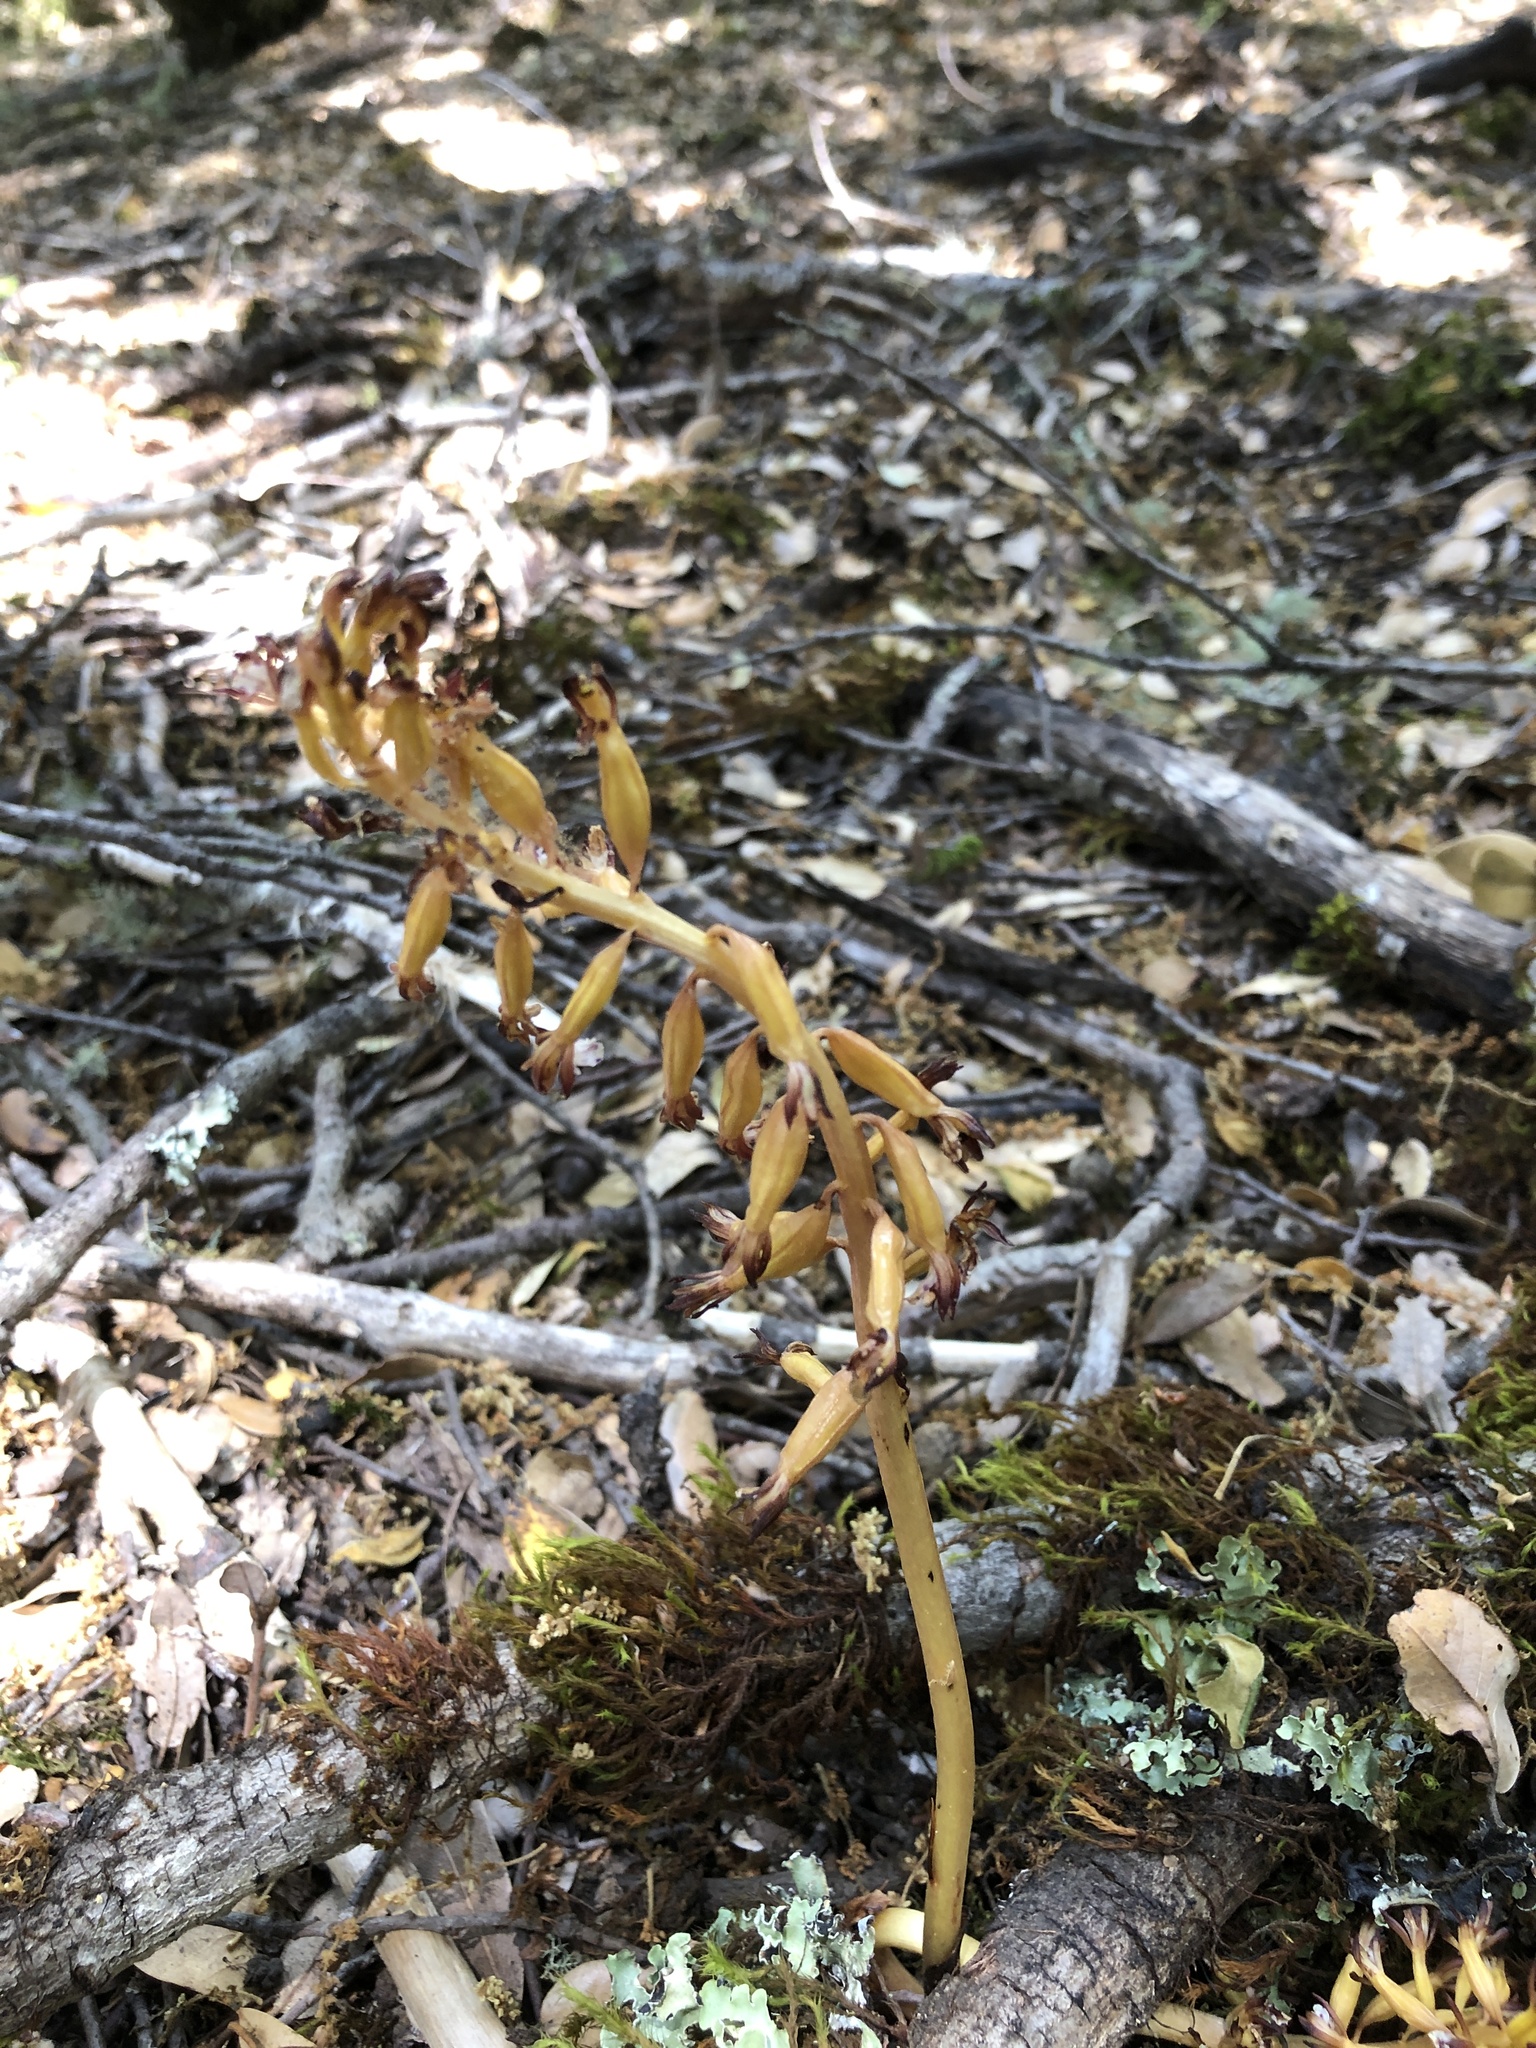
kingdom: Plantae
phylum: Tracheophyta
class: Liliopsida
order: Asparagales
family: Orchidaceae
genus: Corallorhiza
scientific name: Corallorhiza maculata
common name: Spotted coralroot
